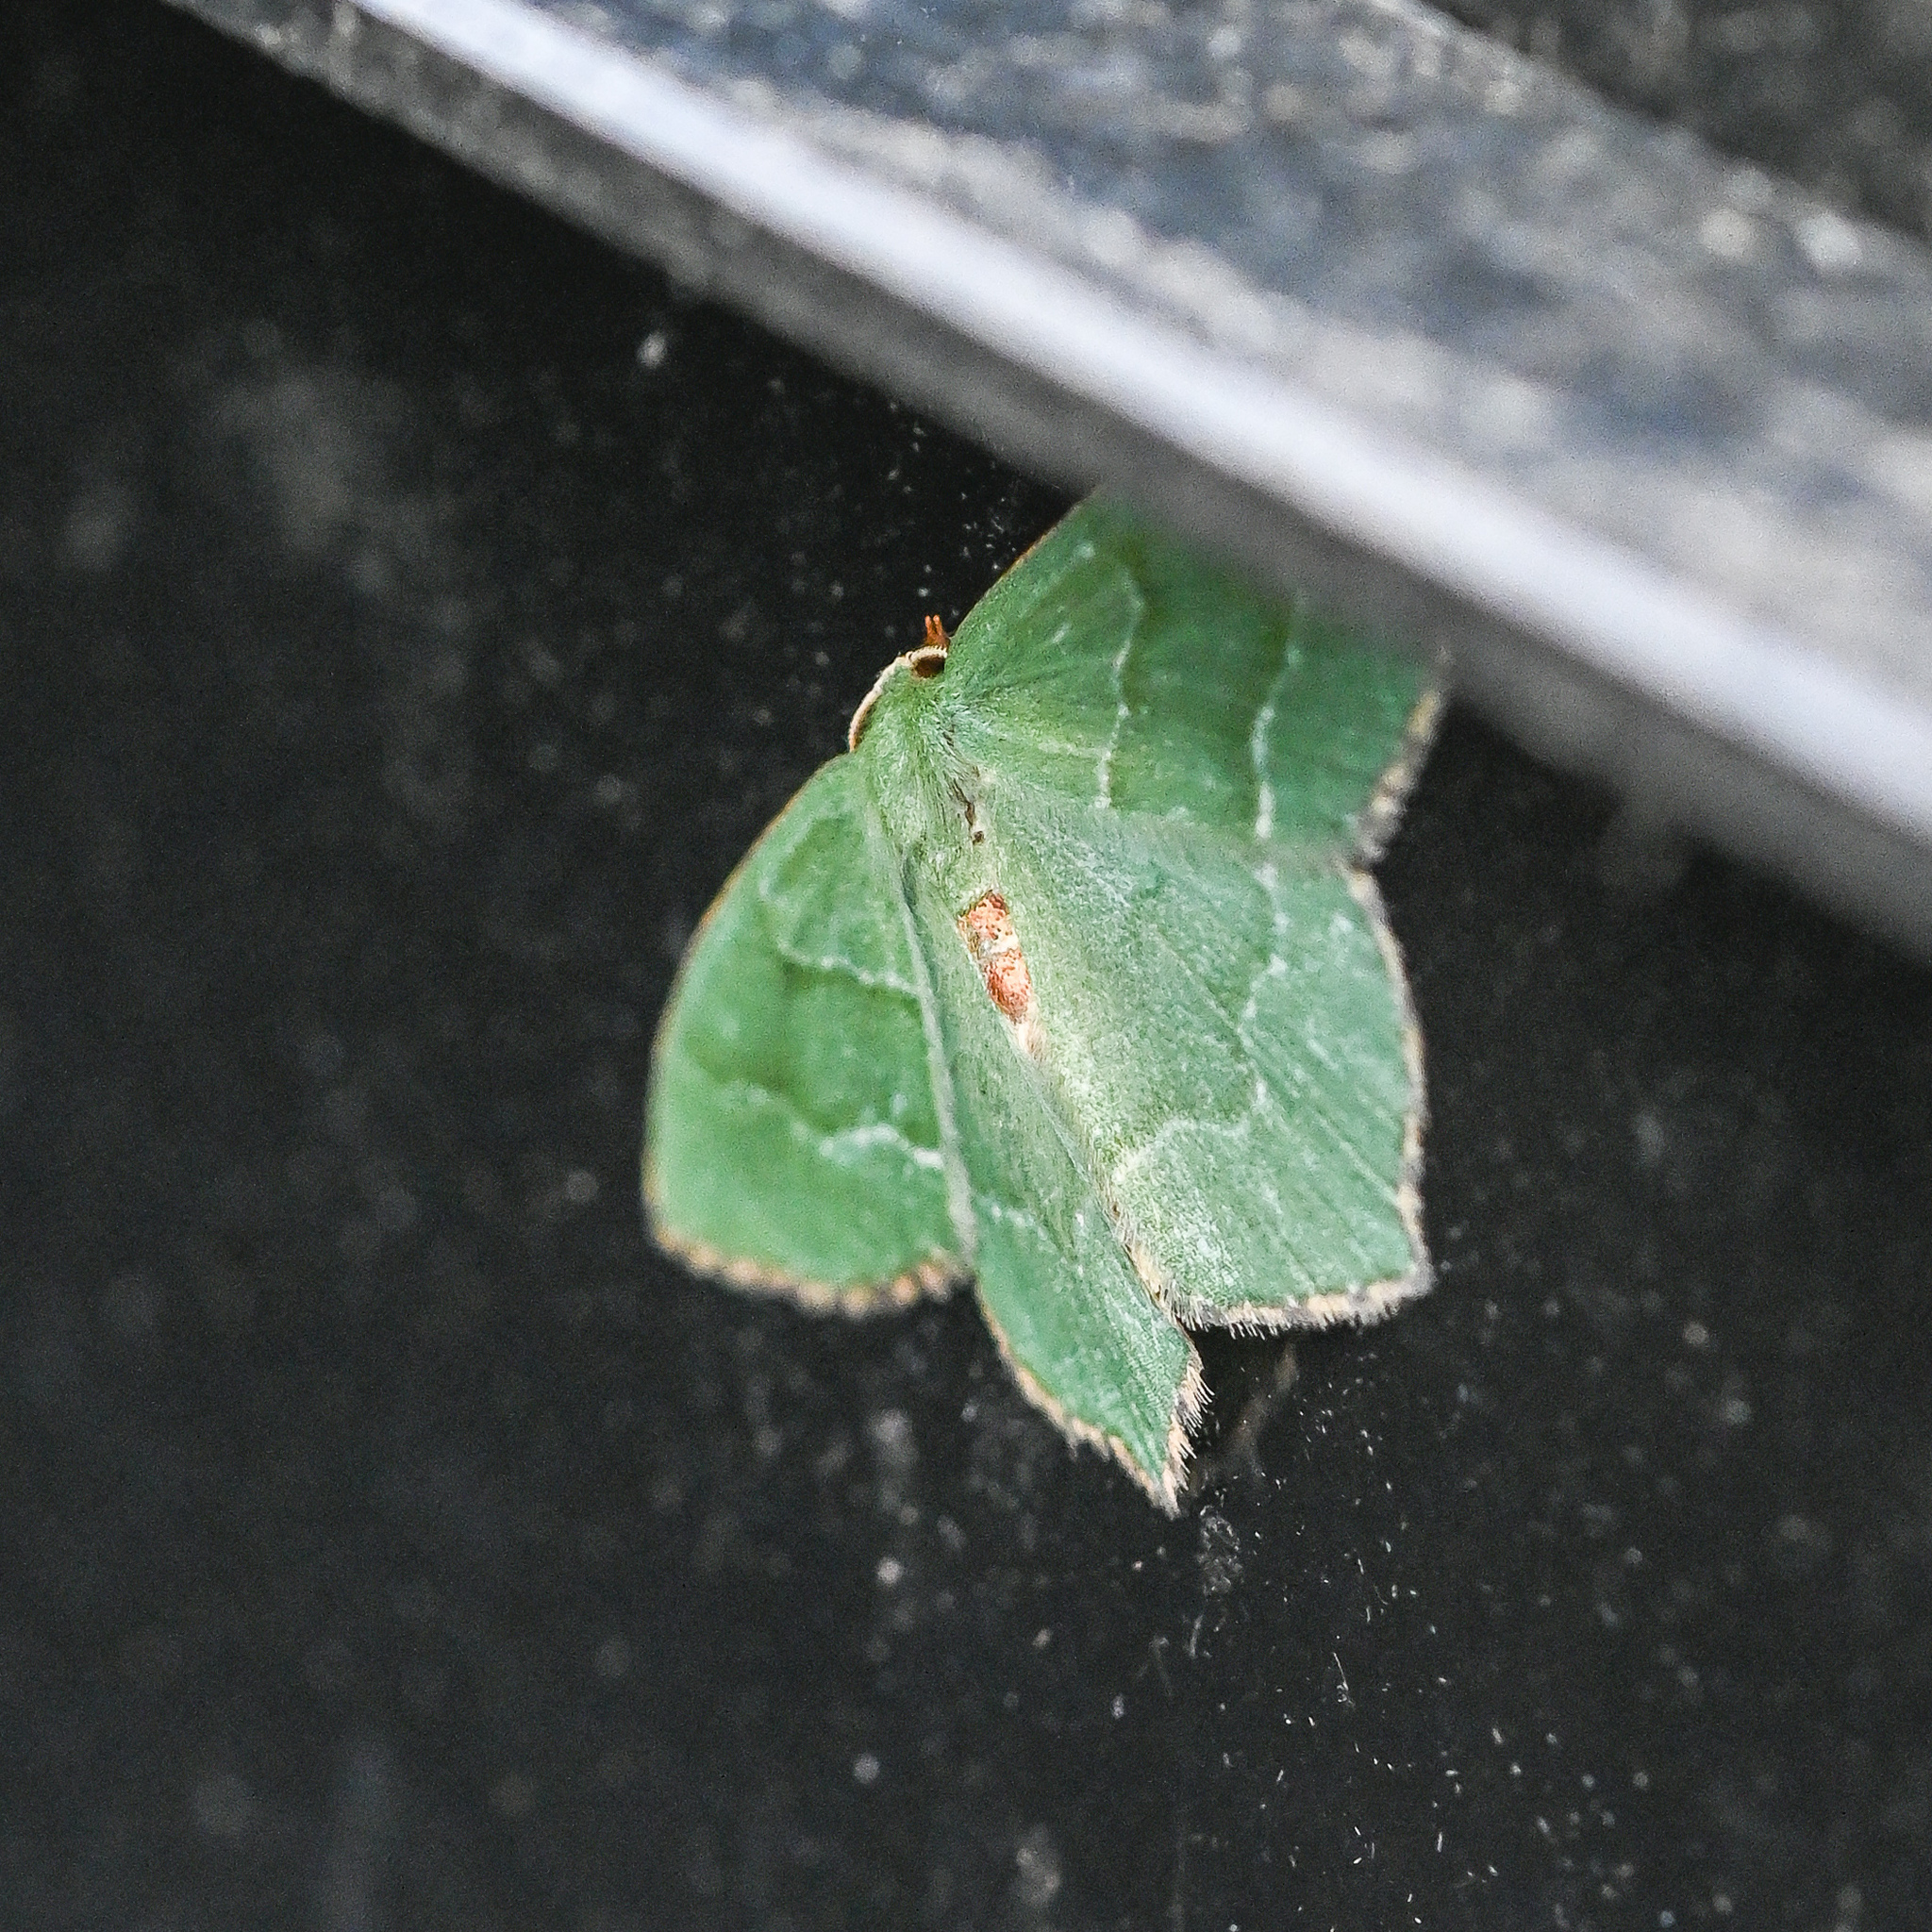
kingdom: Animalia
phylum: Arthropoda
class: Insecta
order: Lepidoptera
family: Geometridae
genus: Hemithea
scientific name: Hemithea aestivaria
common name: Common emerald
